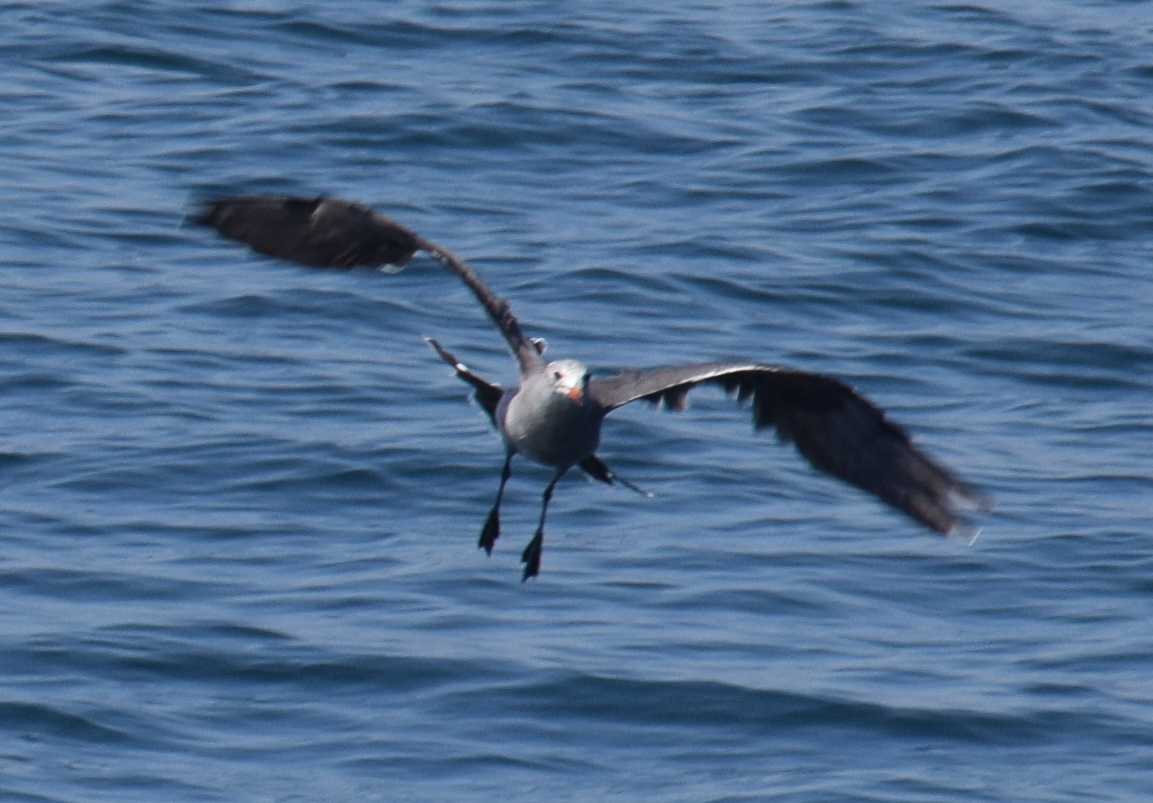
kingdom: Animalia
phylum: Chordata
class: Aves
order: Charadriiformes
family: Laridae
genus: Larus
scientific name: Larus heermanni
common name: Heermann's gull
